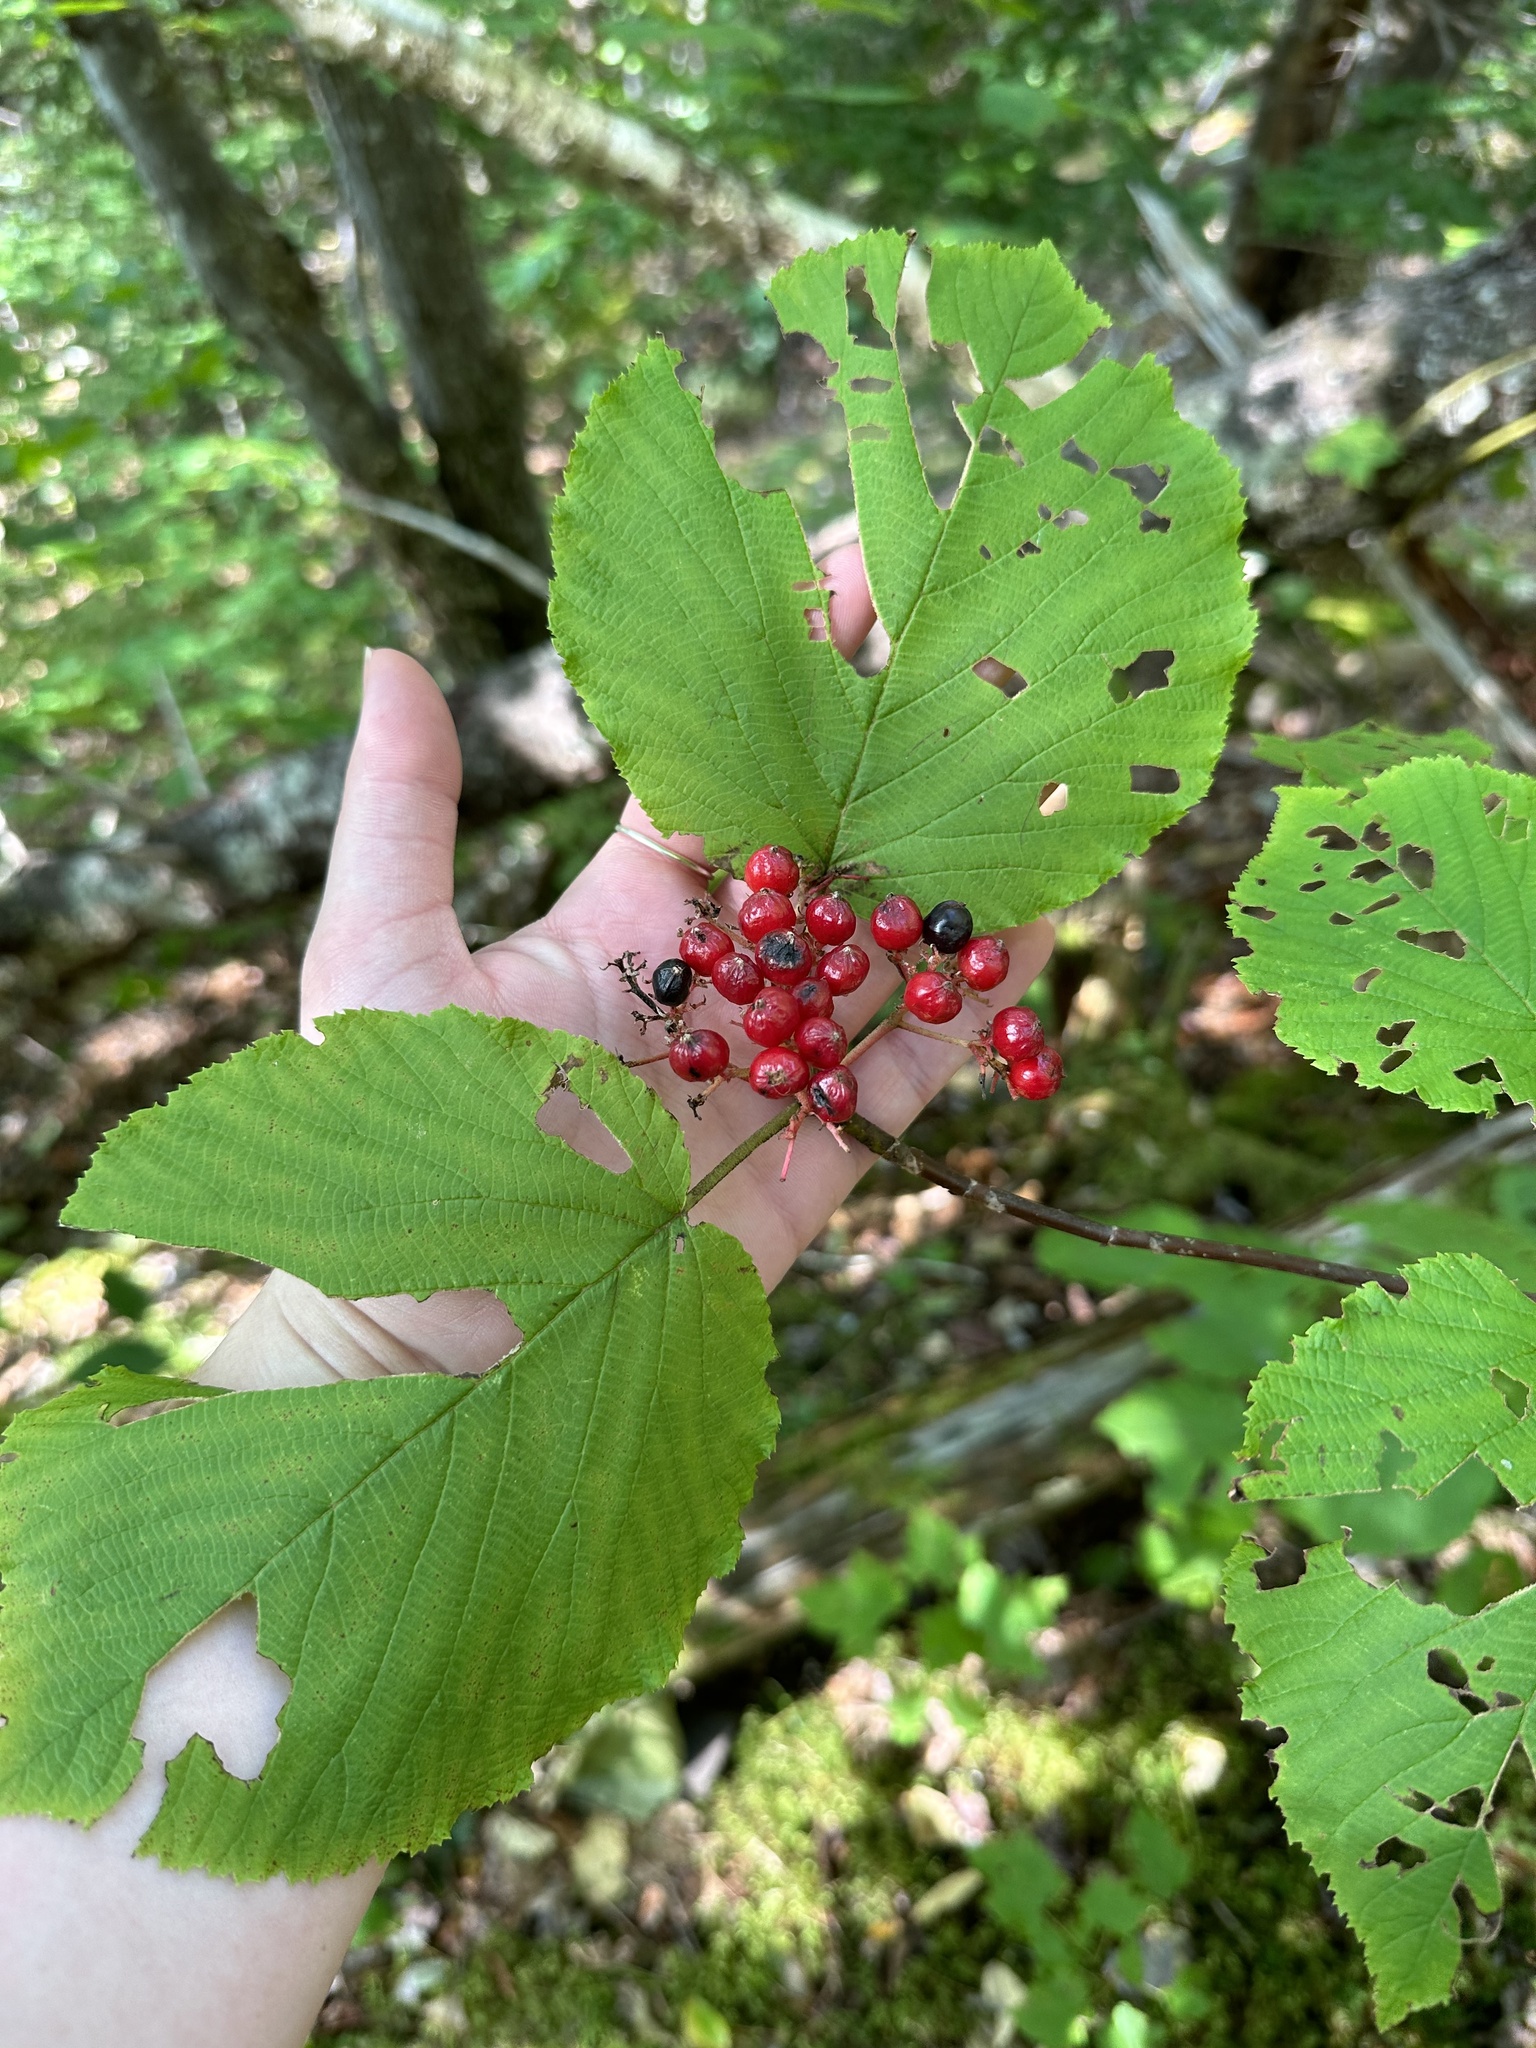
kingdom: Plantae
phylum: Tracheophyta
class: Magnoliopsida
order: Dipsacales
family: Viburnaceae
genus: Viburnum
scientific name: Viburnum lantanoides
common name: Hobblebush
